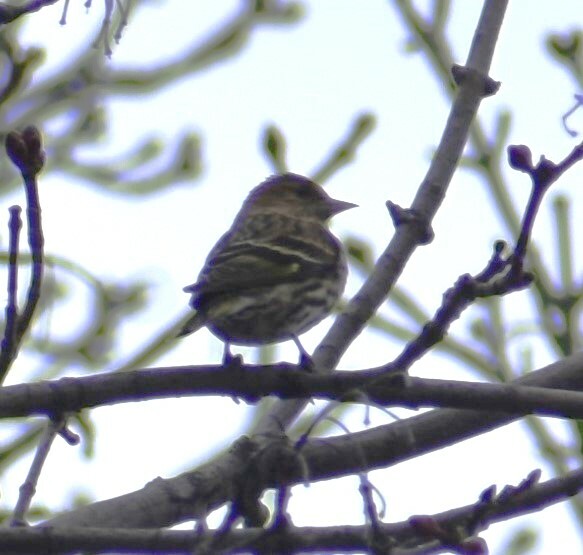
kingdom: Animalia
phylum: Chordata
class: Aves
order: Passeriformes
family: Fringillidae
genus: Spinus
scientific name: Spinus pinus
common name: Pine siskin
